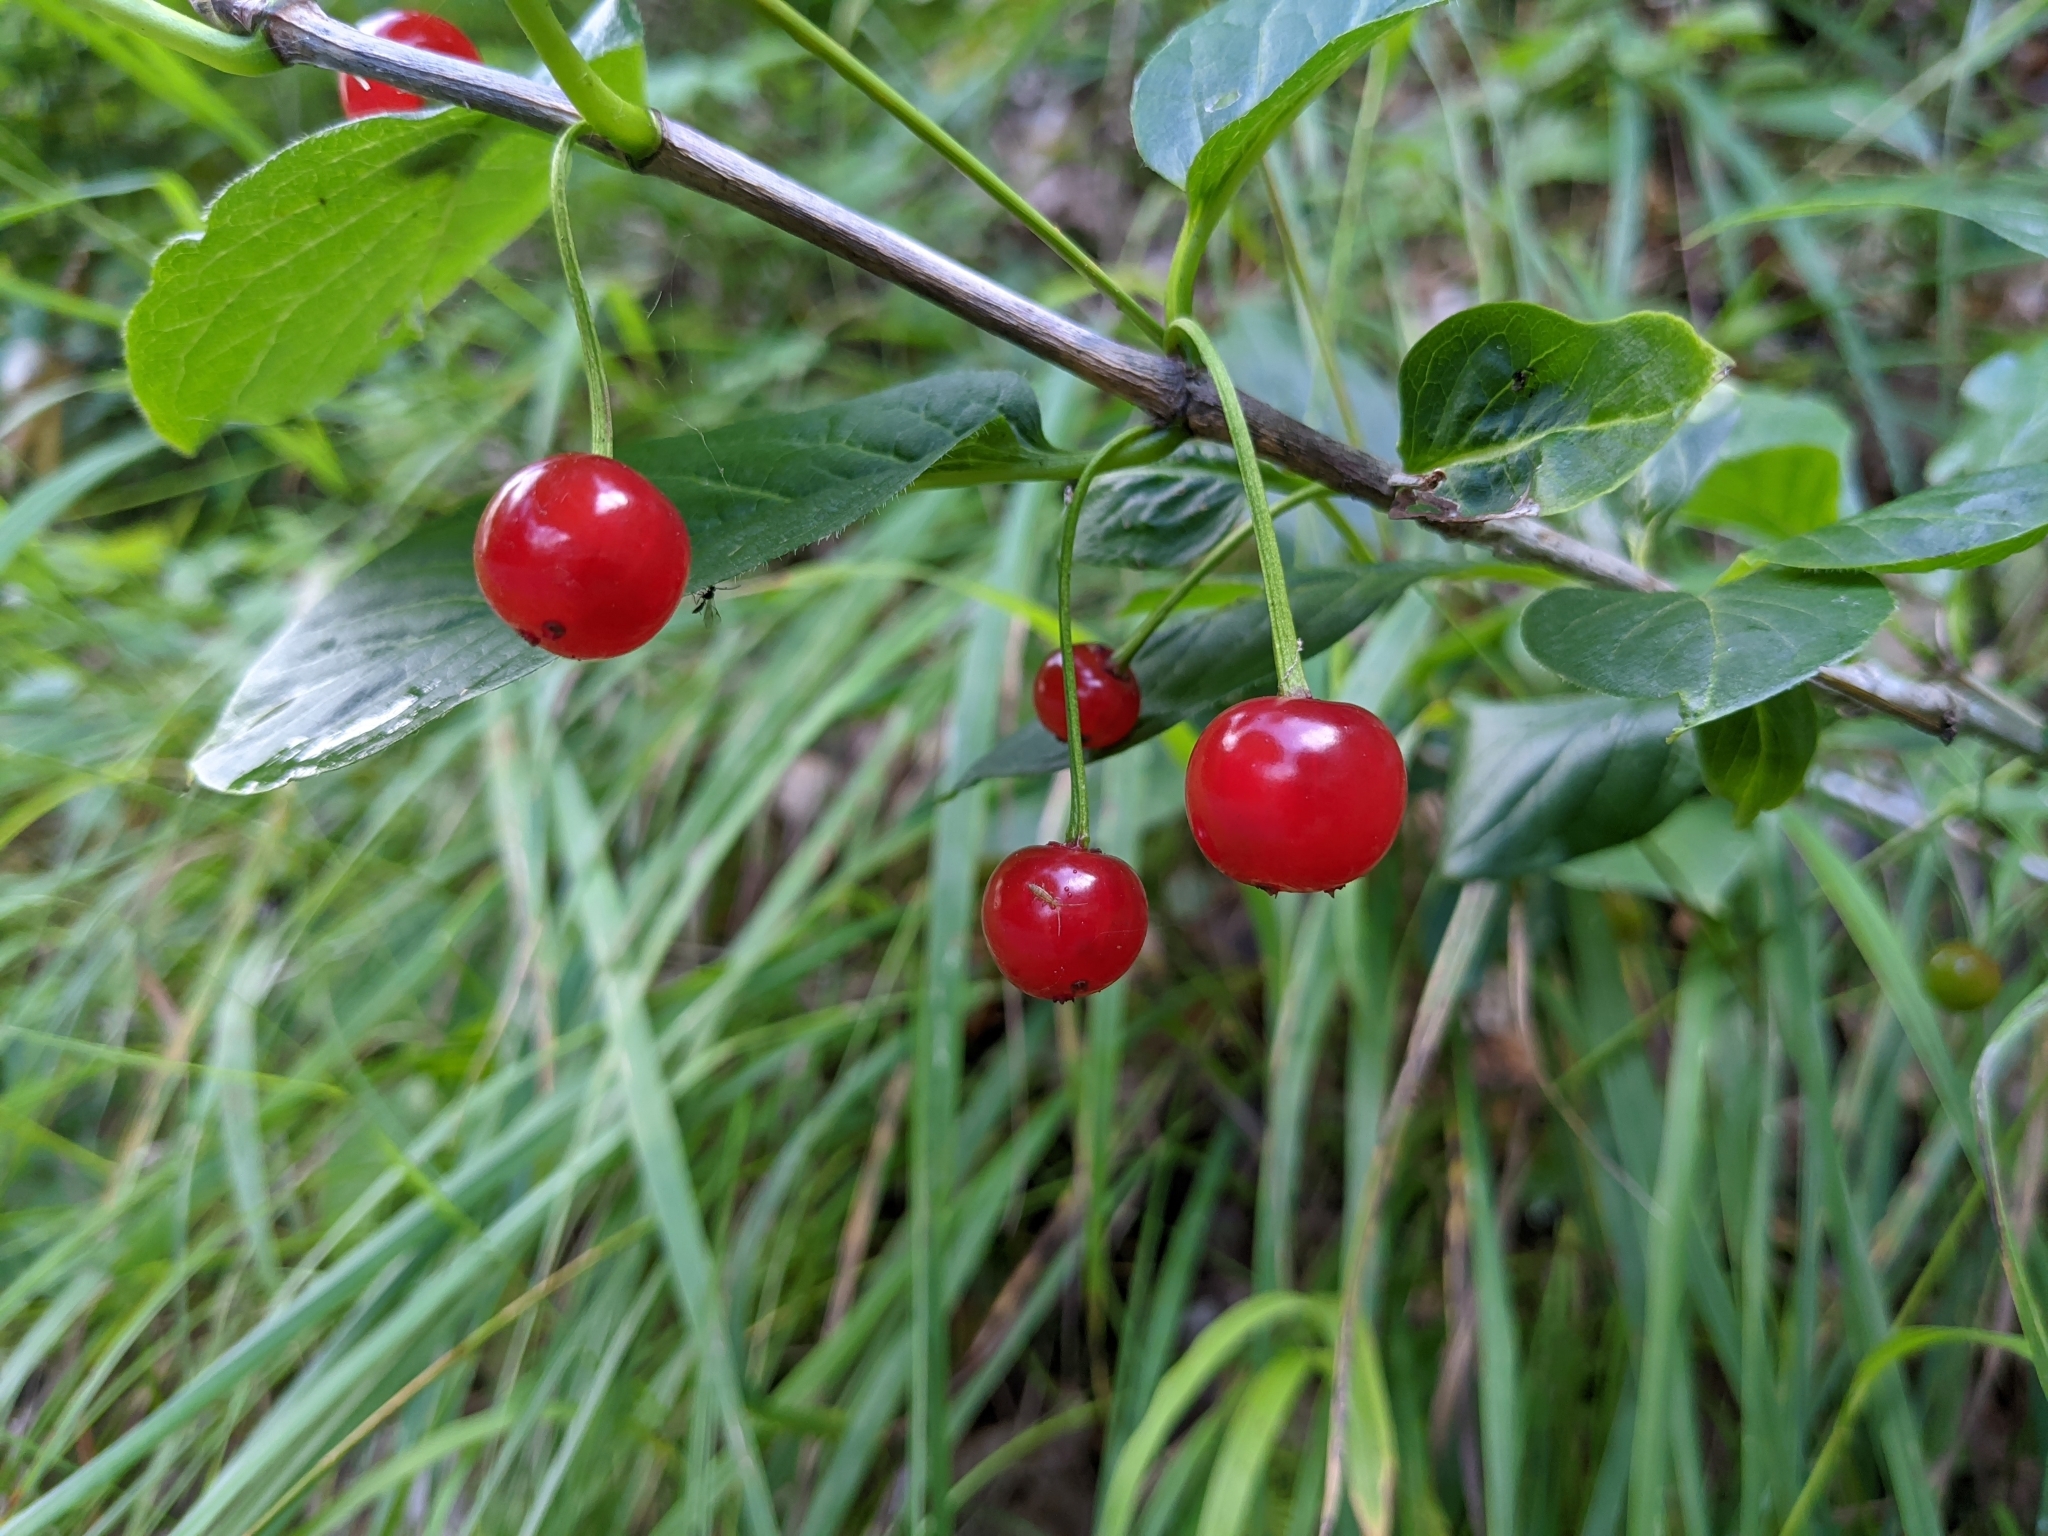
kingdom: Plantae
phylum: Tracheophyta
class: Magnoliopsida
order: Dipsacales
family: Caprifoliaceae
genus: Lonicera
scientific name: Lonicera alpigena
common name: Alpine honeysuckle
